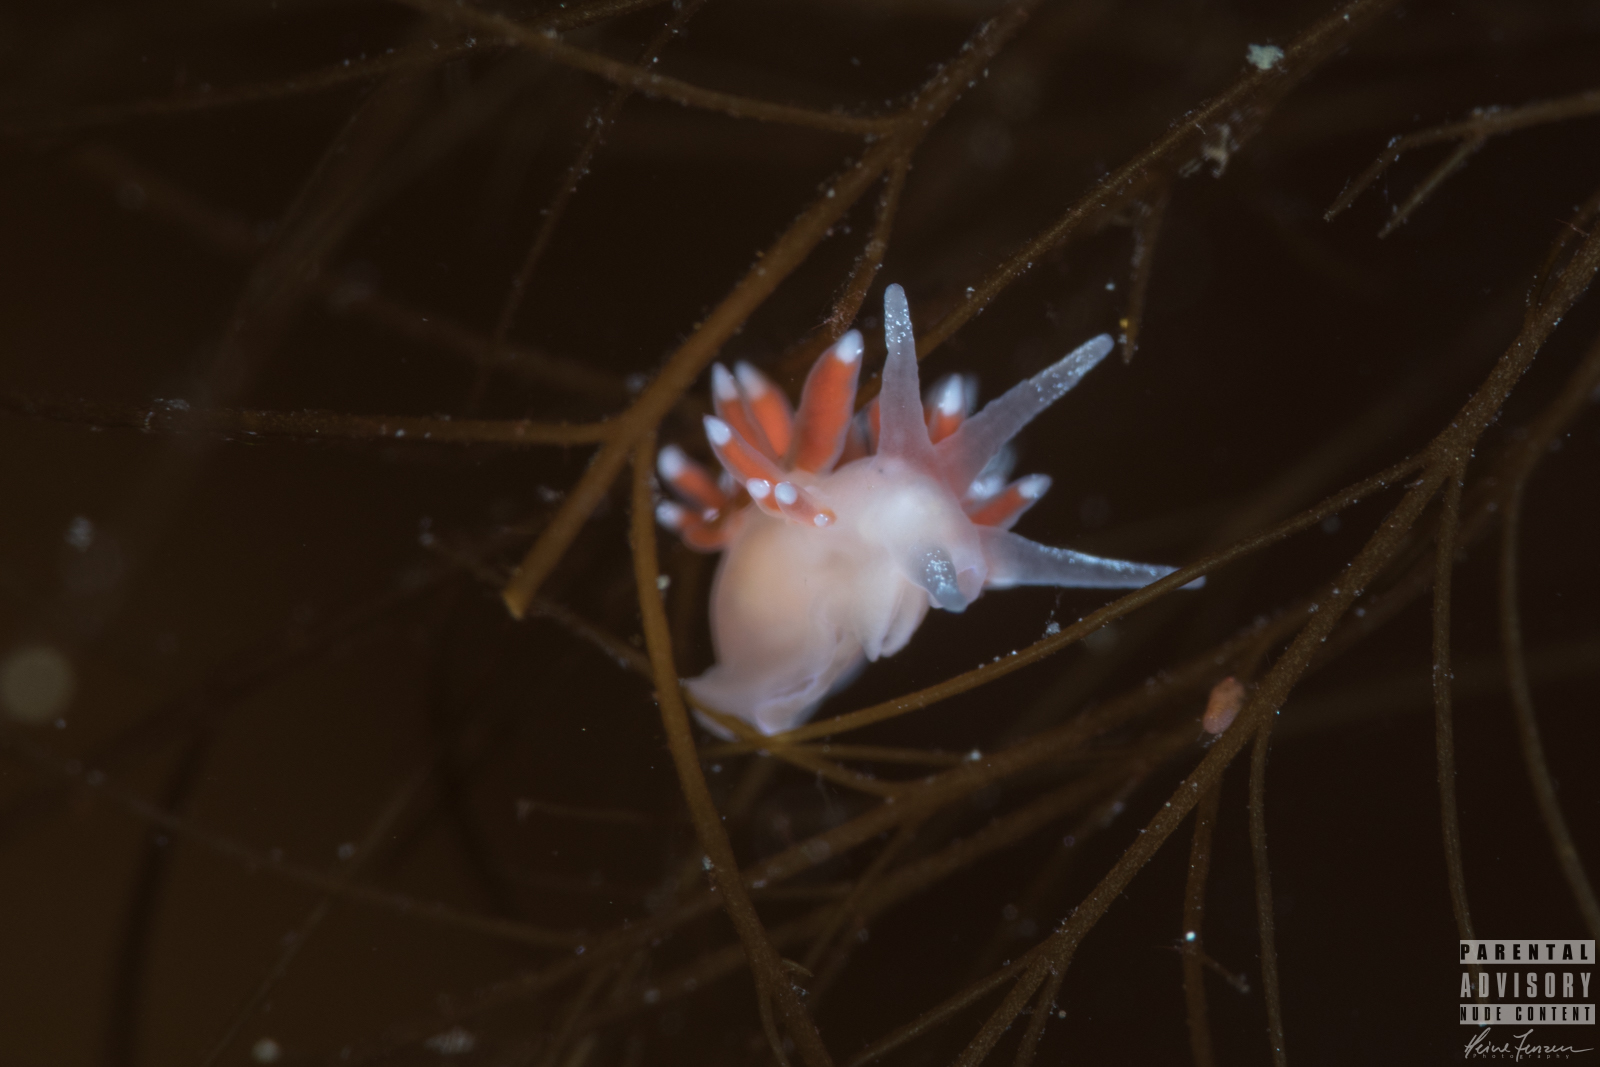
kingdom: Animalia
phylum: Mollusca
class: Gastropoda
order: Nudibranchia
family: Coryphellidae
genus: Coryphella
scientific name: Coryphella gracilis
